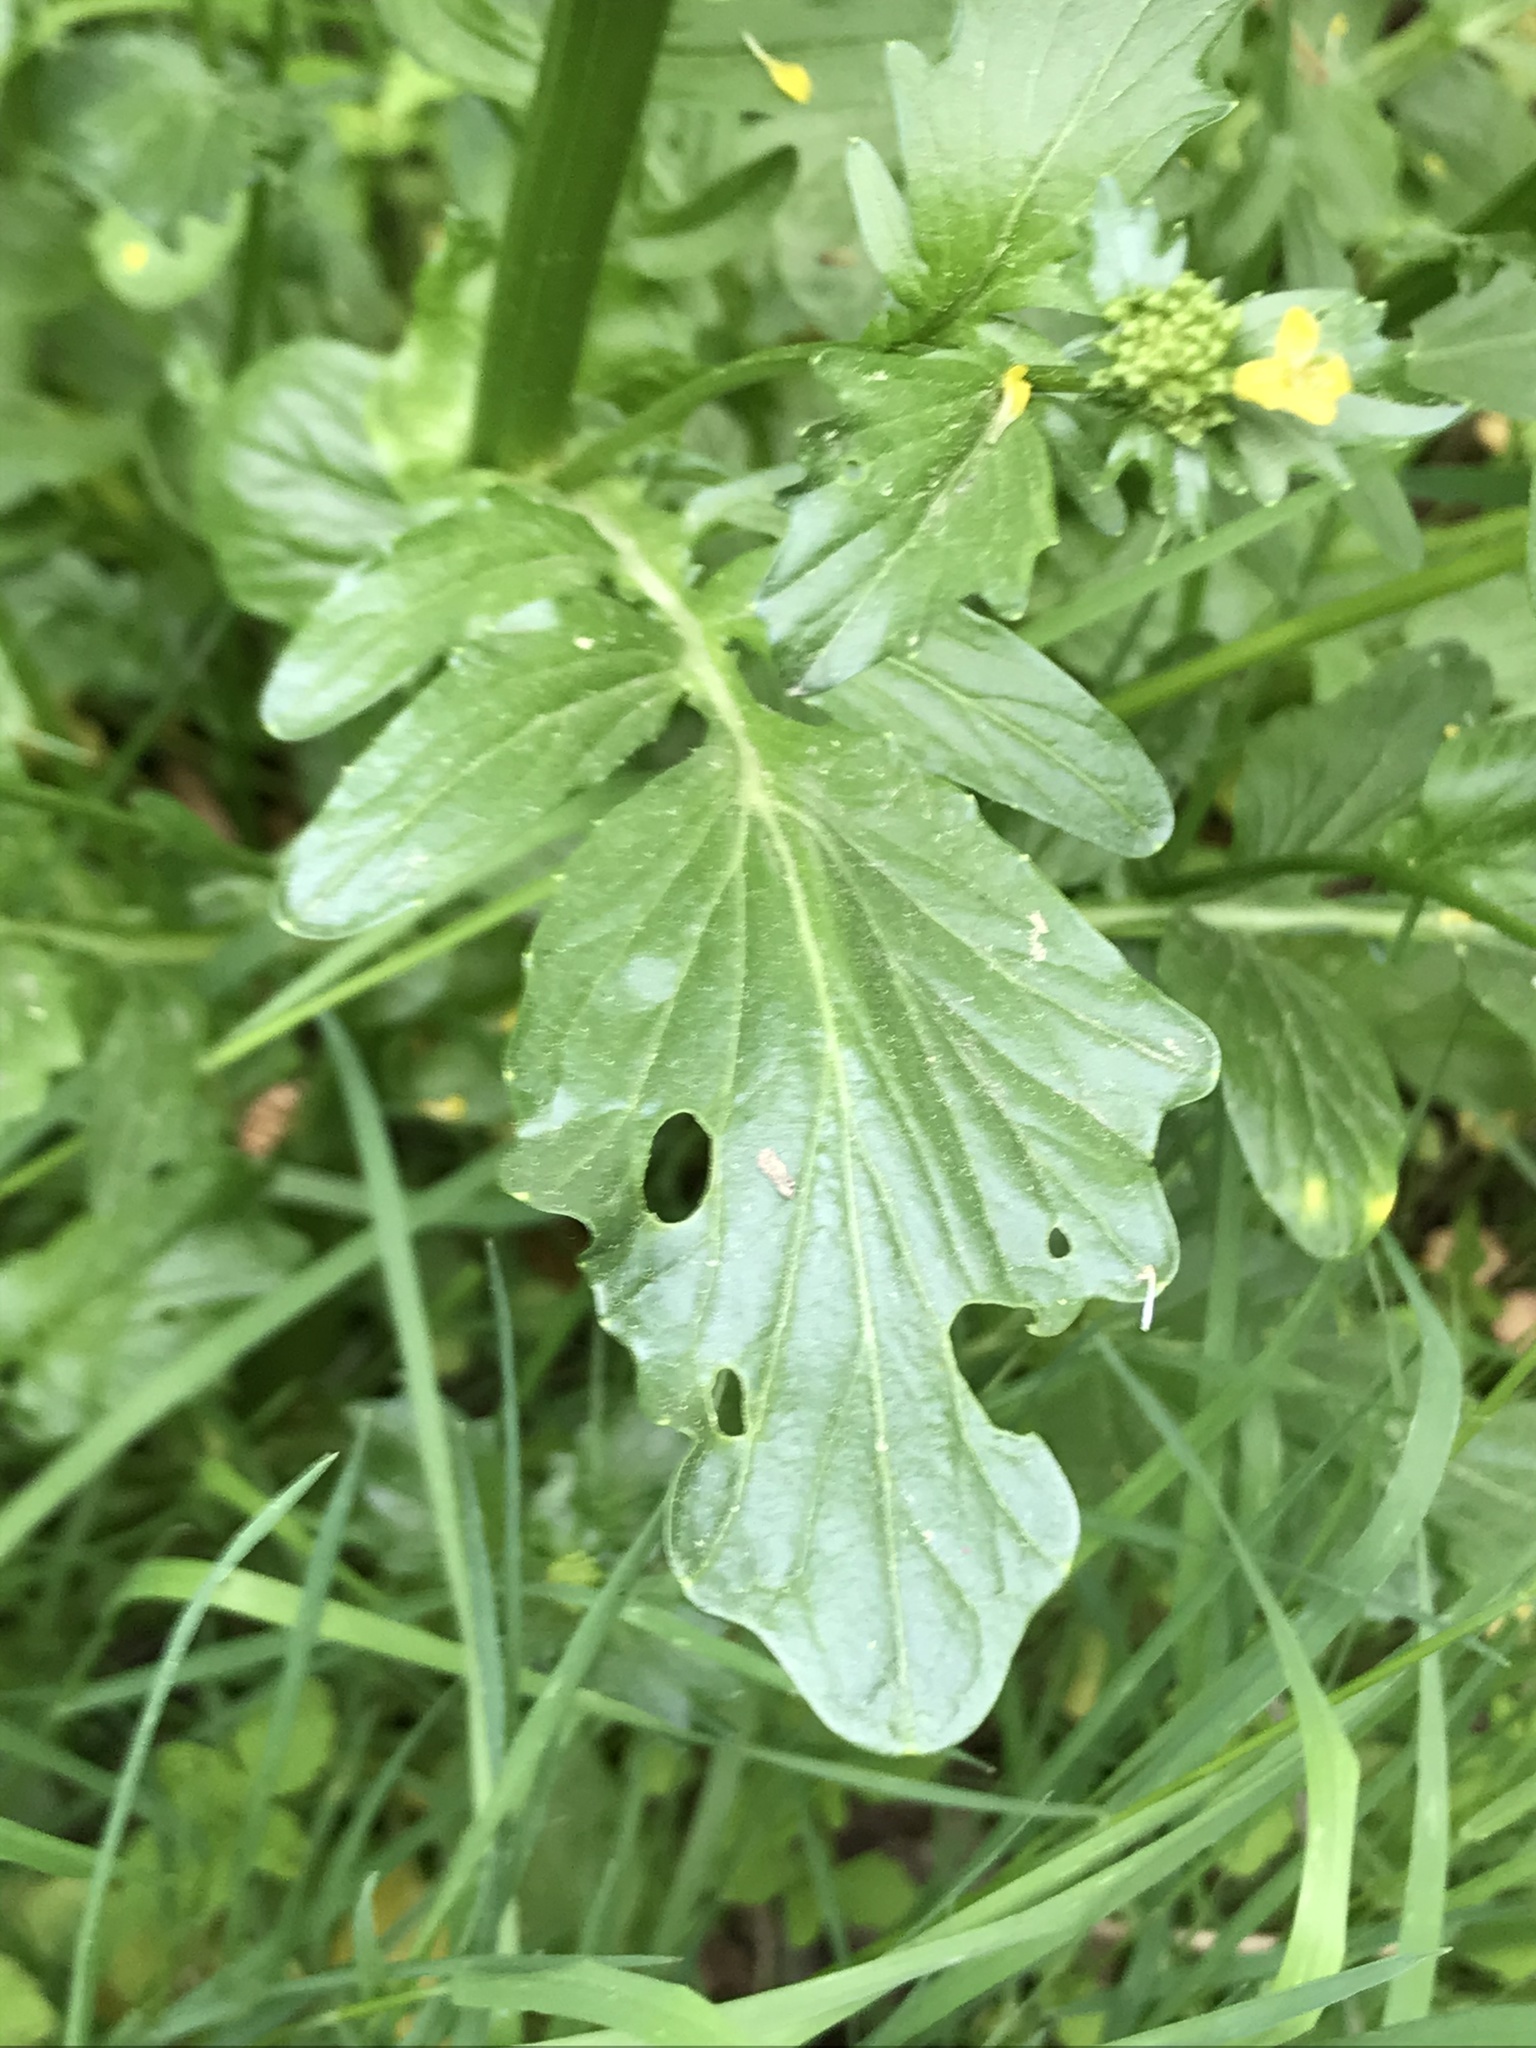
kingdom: Plantae
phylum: Tracheophyta
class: Magnoliopsida
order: Brassicales
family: Brassicaceae
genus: Barbarea
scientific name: Barbarea vulgaris
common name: Cressy-greens
